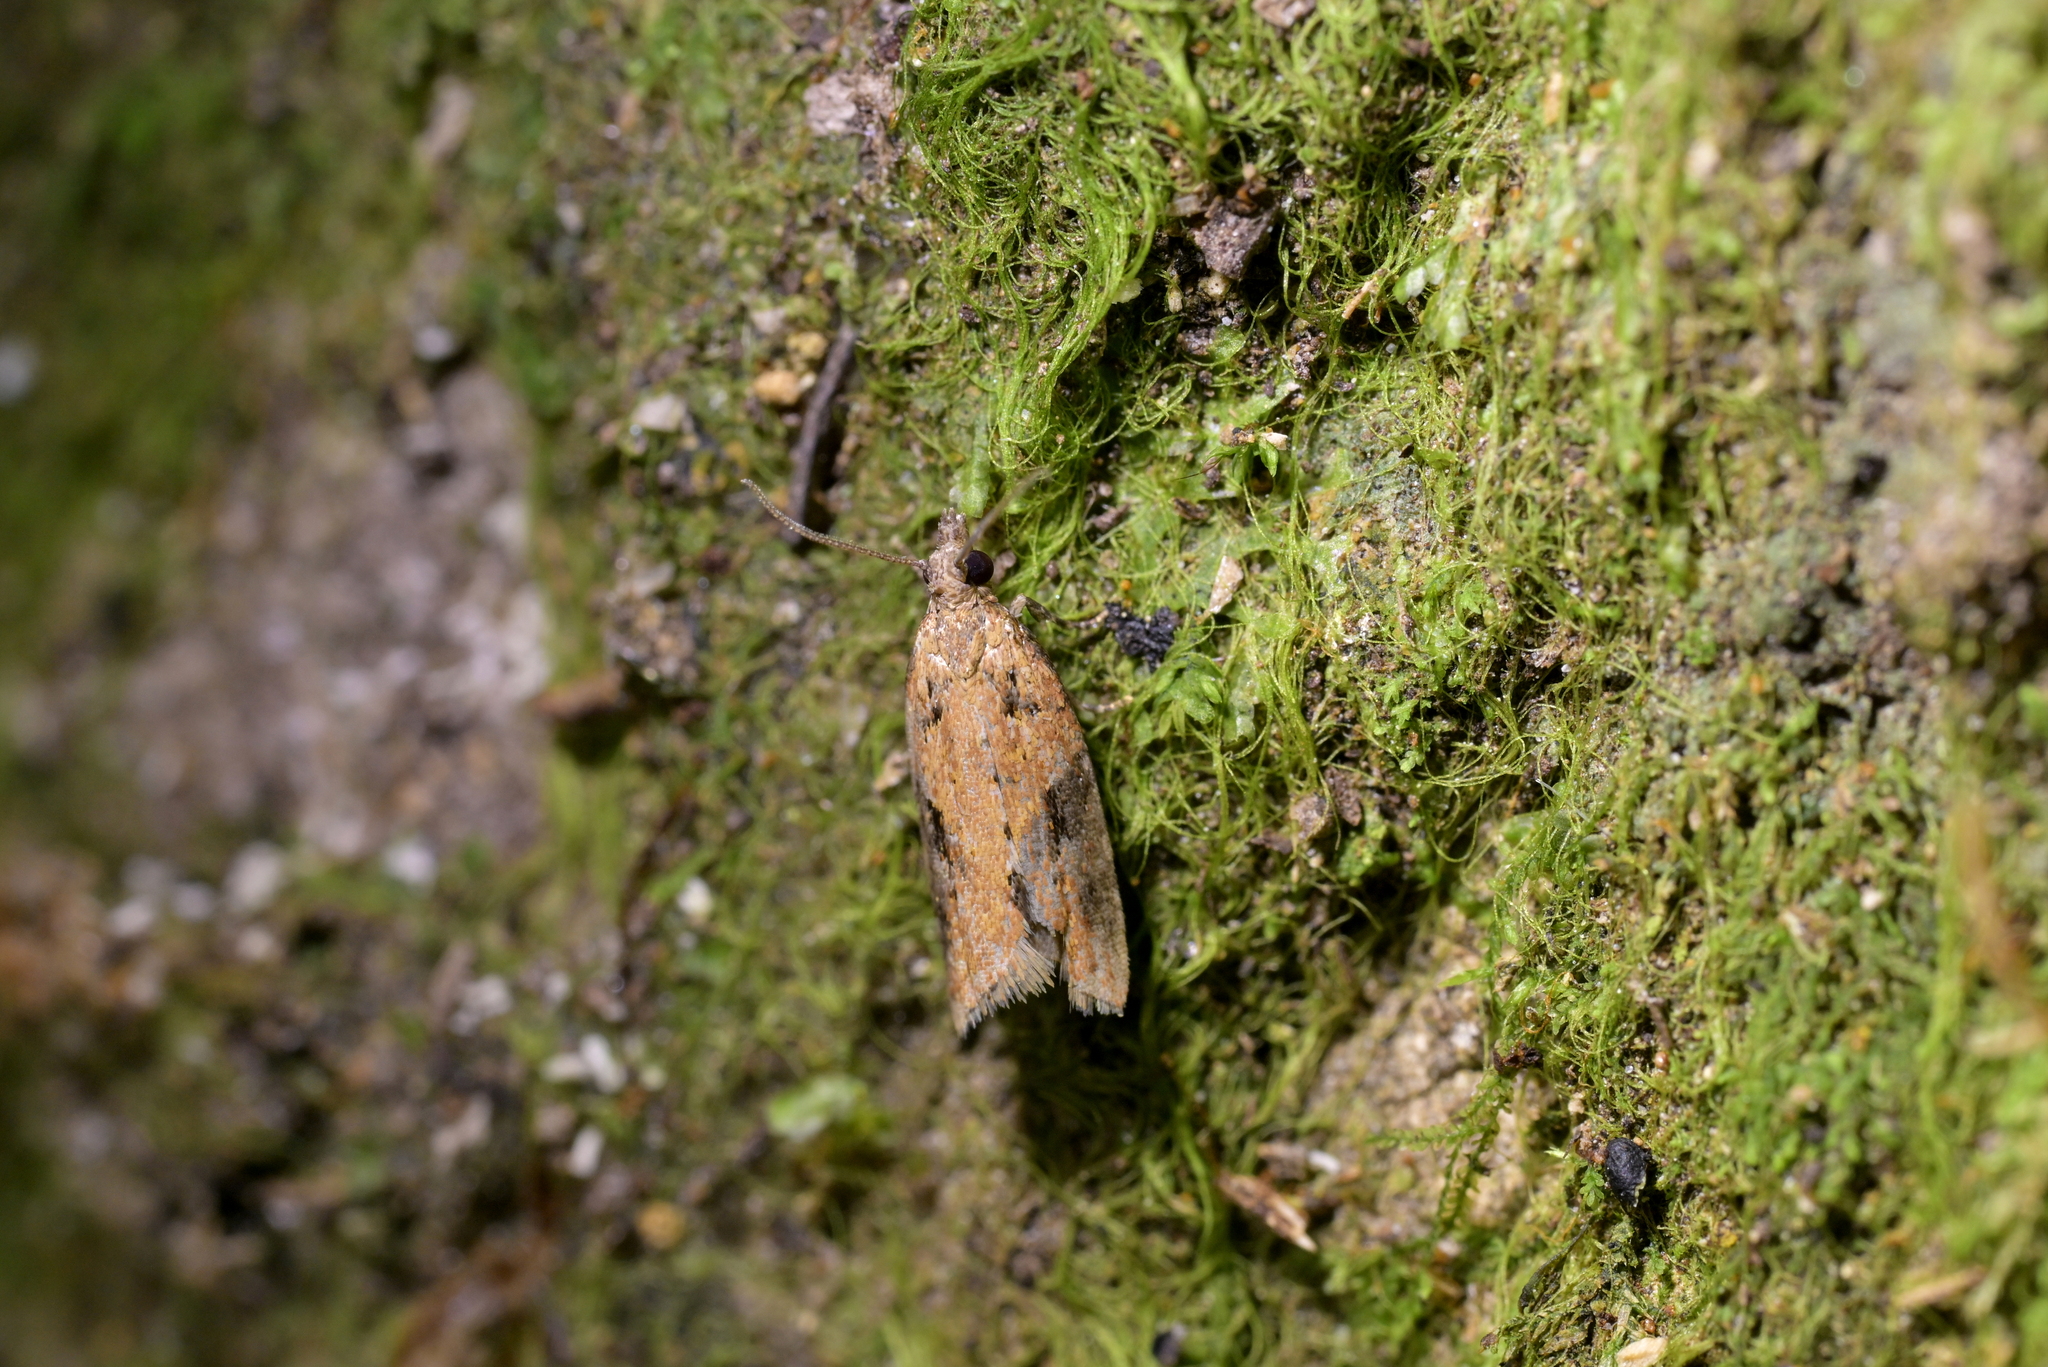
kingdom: Animalia
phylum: Arthropoda
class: Insecta
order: Lepidoptera
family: Tortricidae
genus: Capua
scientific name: Capua semiferana
